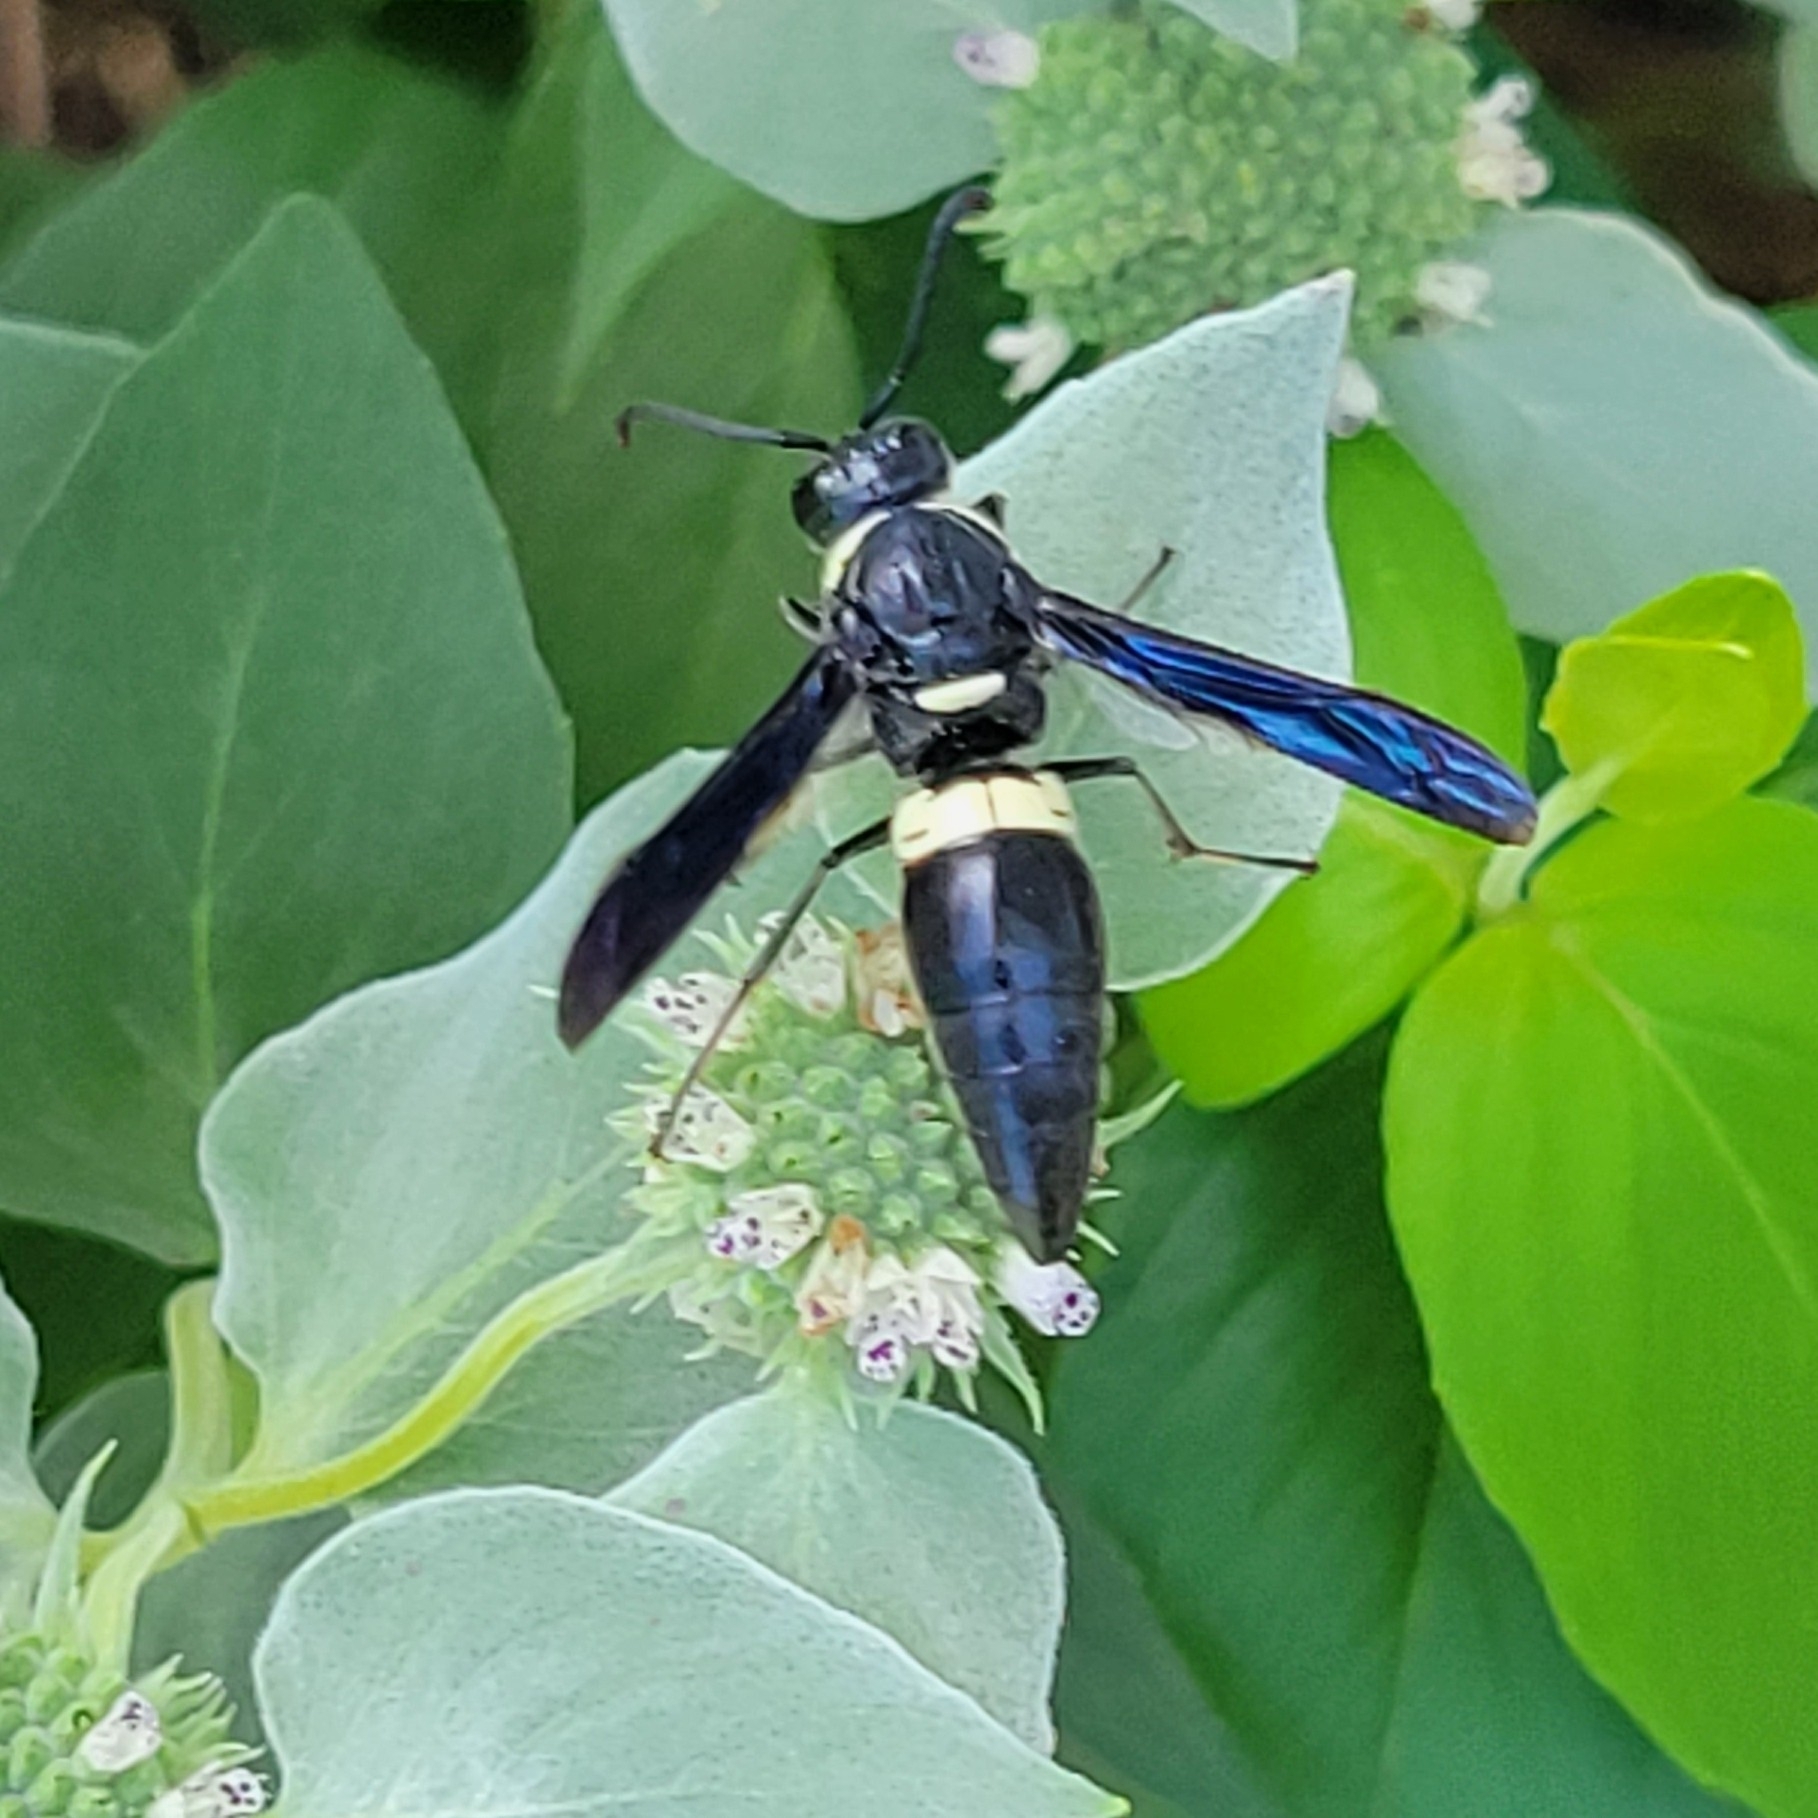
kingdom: Animalia
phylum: Arthropoda
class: Insecta
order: Hymenoptera
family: Eumenidae
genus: Monobia
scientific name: Monobia quadridens
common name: Four-toothed mason wasp
